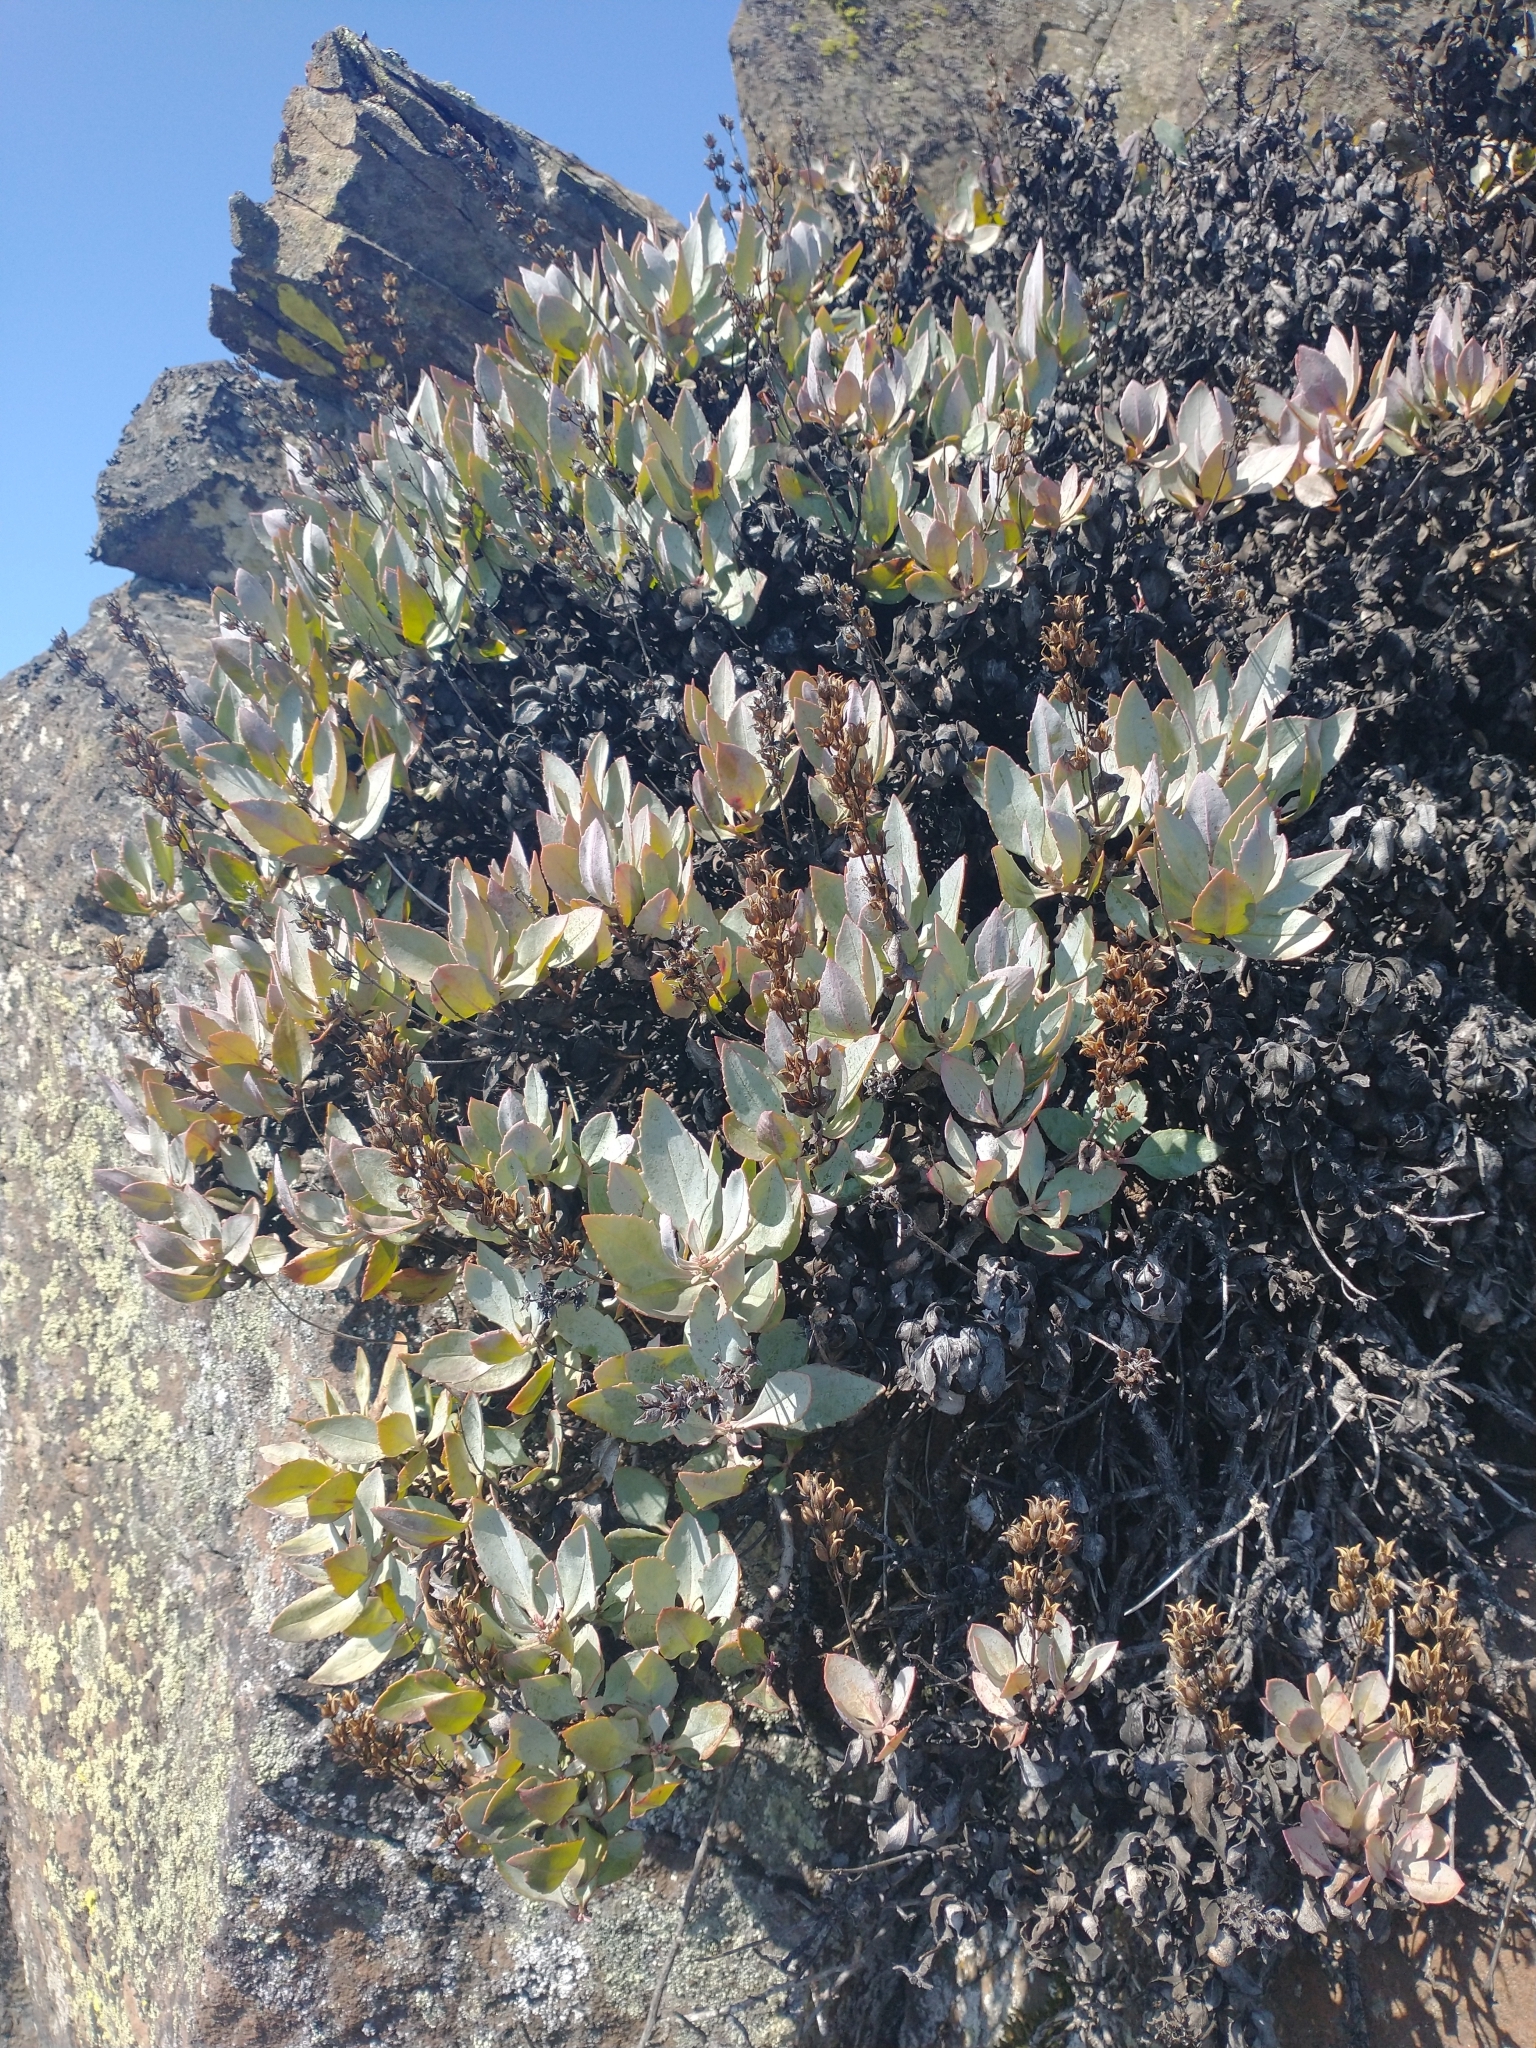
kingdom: Plantae
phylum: Tracheophyta
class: Magnoliopsida
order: Lamiales
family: Plantaginaceae
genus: Penstemon
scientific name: Penstemon barrettiae
